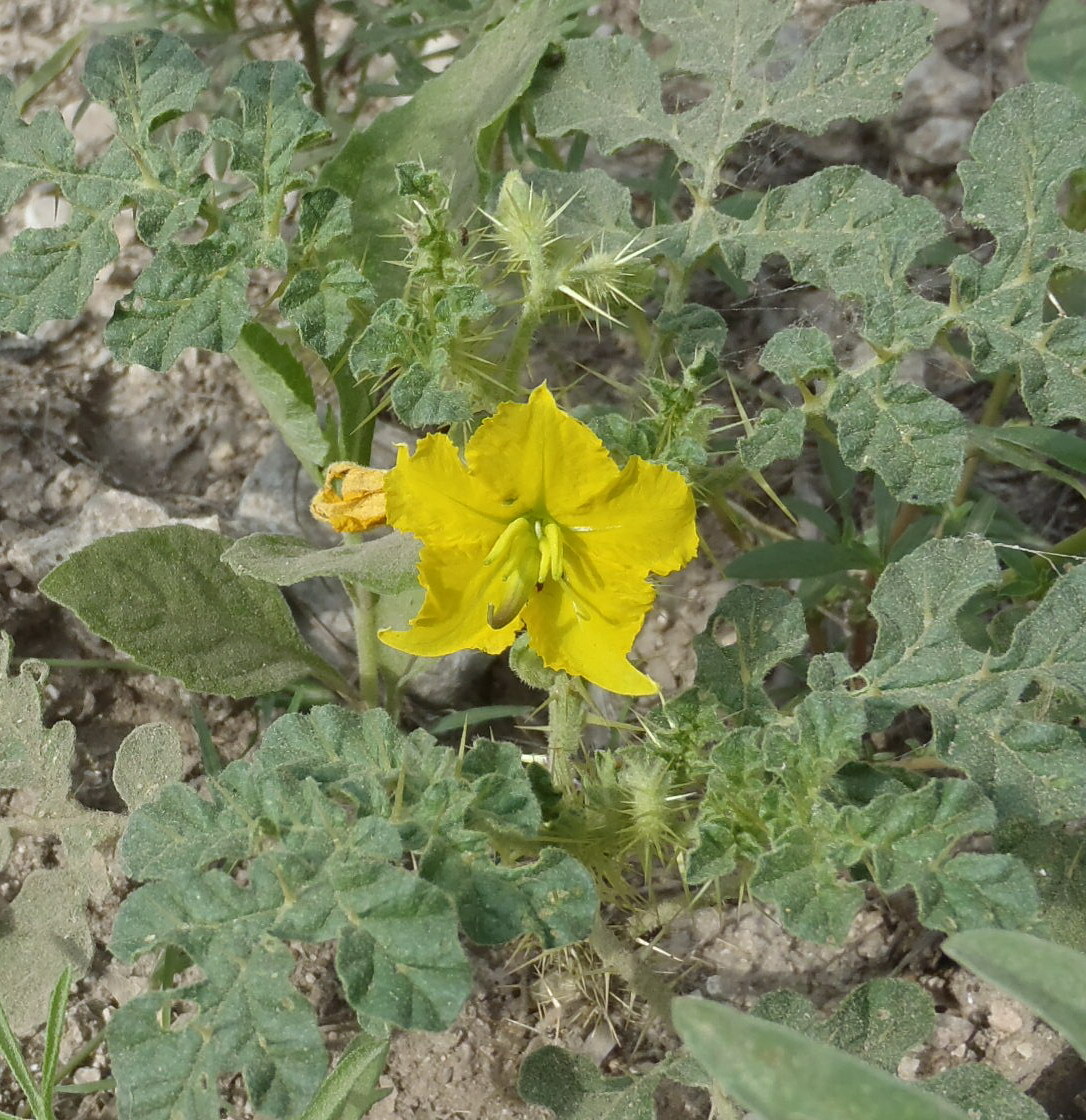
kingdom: Plantae
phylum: Tracheophyta
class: Magnoliopsida
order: Solanales
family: Solanaceae
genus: Solanum
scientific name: Solanum angustifolium
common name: Buffalobur nightshade
